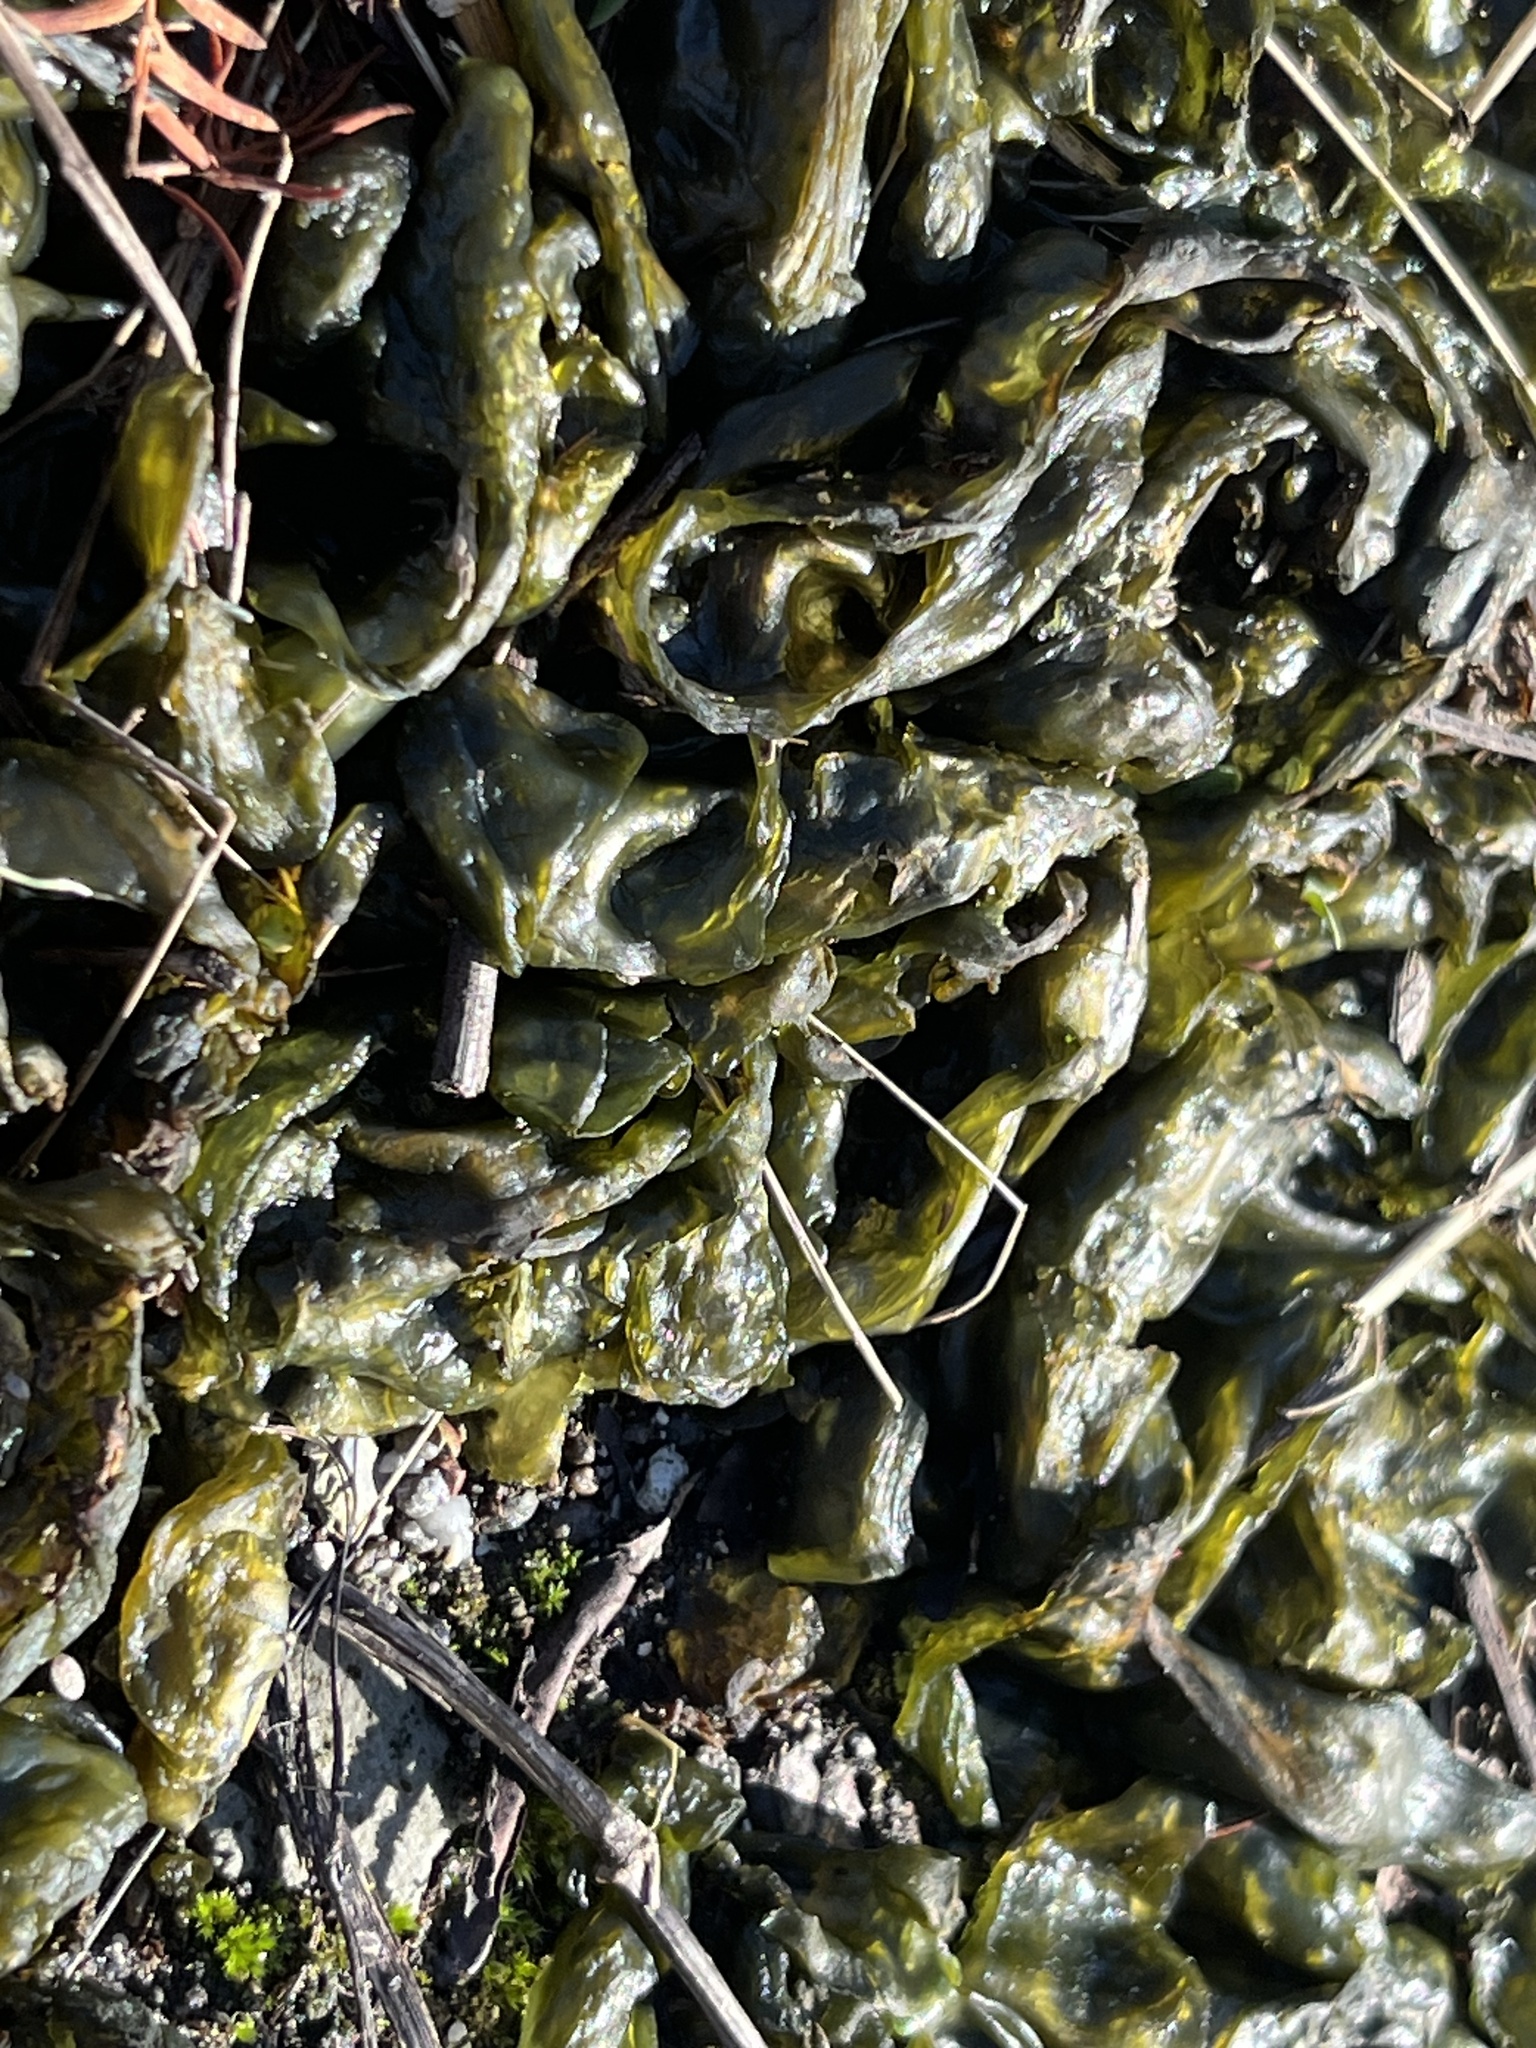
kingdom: Bacteria
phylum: Cyanobacteria
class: Cyanobacteriia
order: Cyanobacteriales
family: Nostocaceae
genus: Nostoc
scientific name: Nostoc commune
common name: Star jelly
